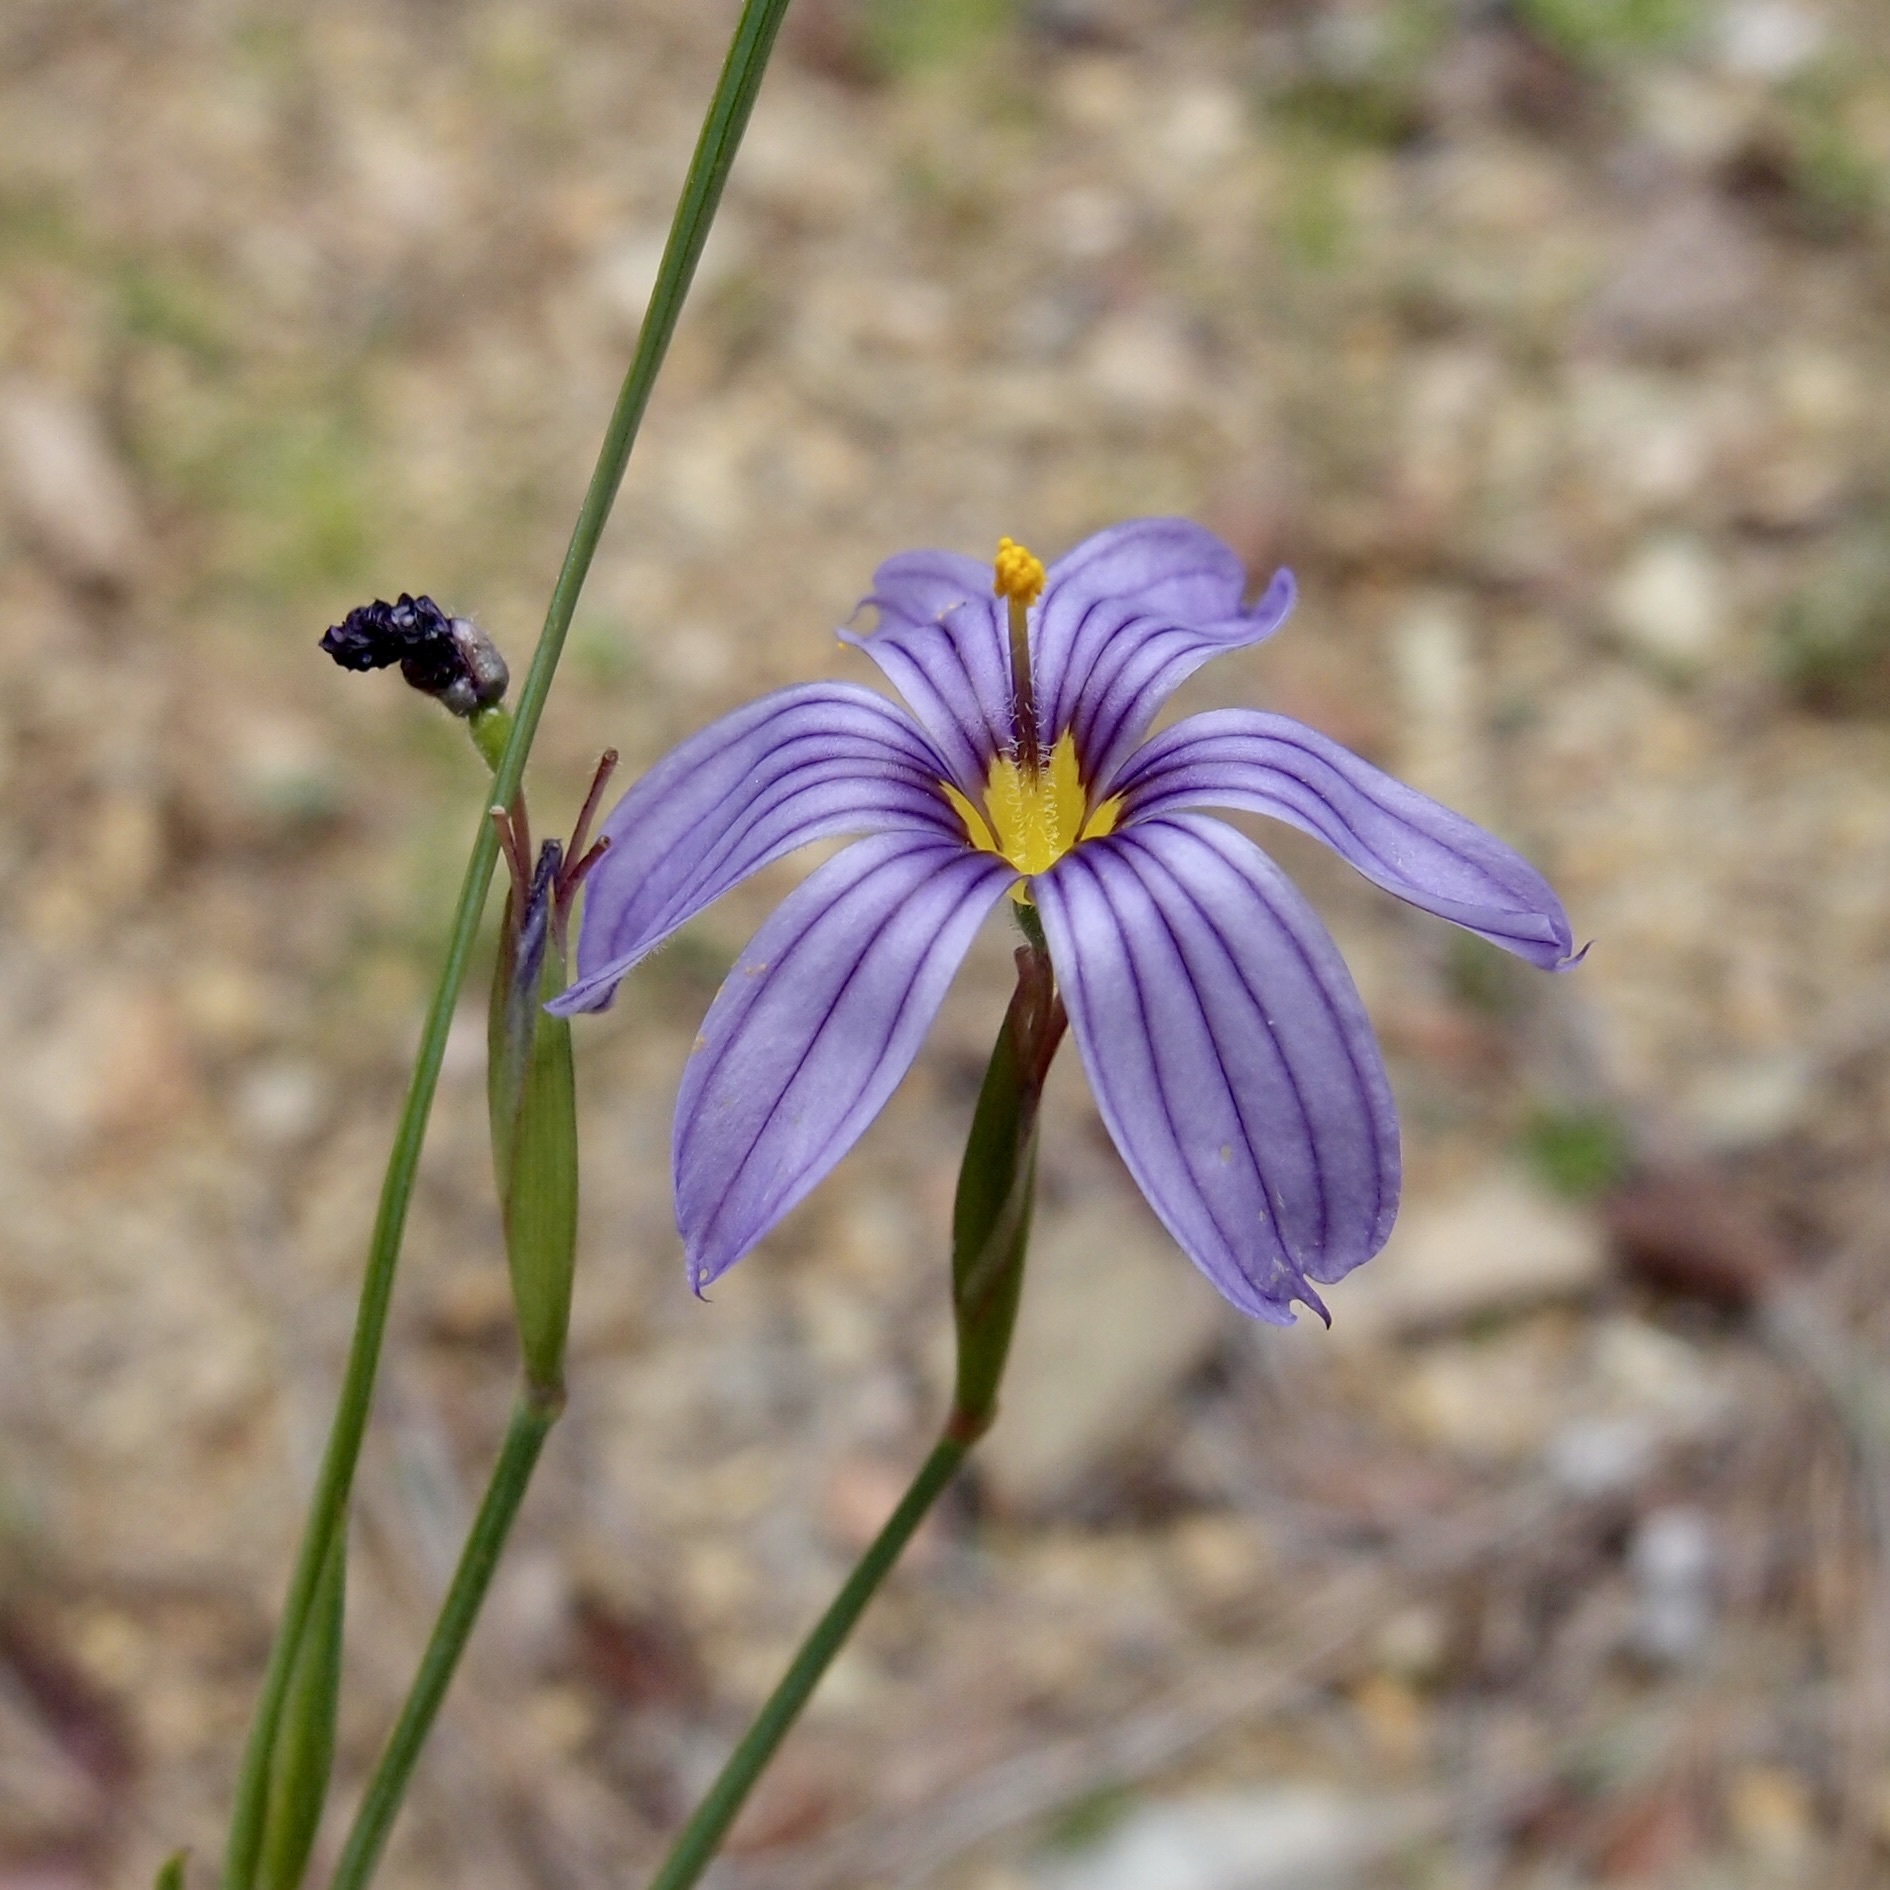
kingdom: Plantae
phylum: Tracheophyta
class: Liliopsida
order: Asparagales
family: Iridaceae
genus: Sisyrinchium
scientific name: Sisyrinchium demissum
